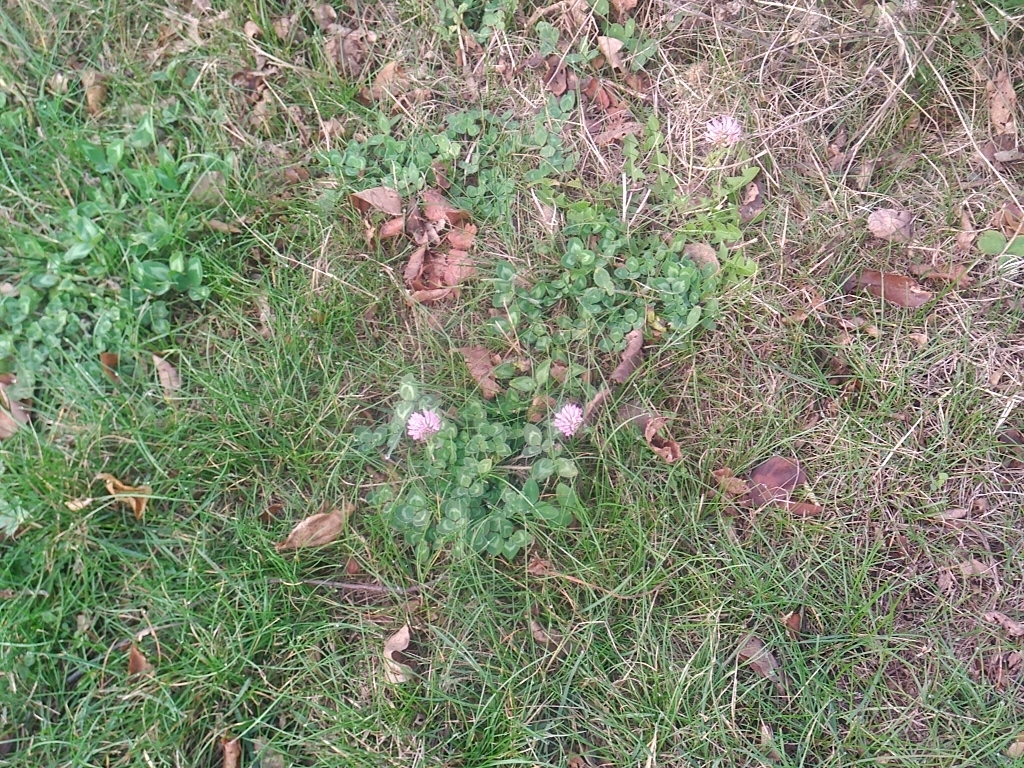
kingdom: Plantae
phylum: Tracheophyta
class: Magnoliopsida
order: Fabales
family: Fabaceae
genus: Trifolium
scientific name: Trifolium pratense
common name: Red clover
